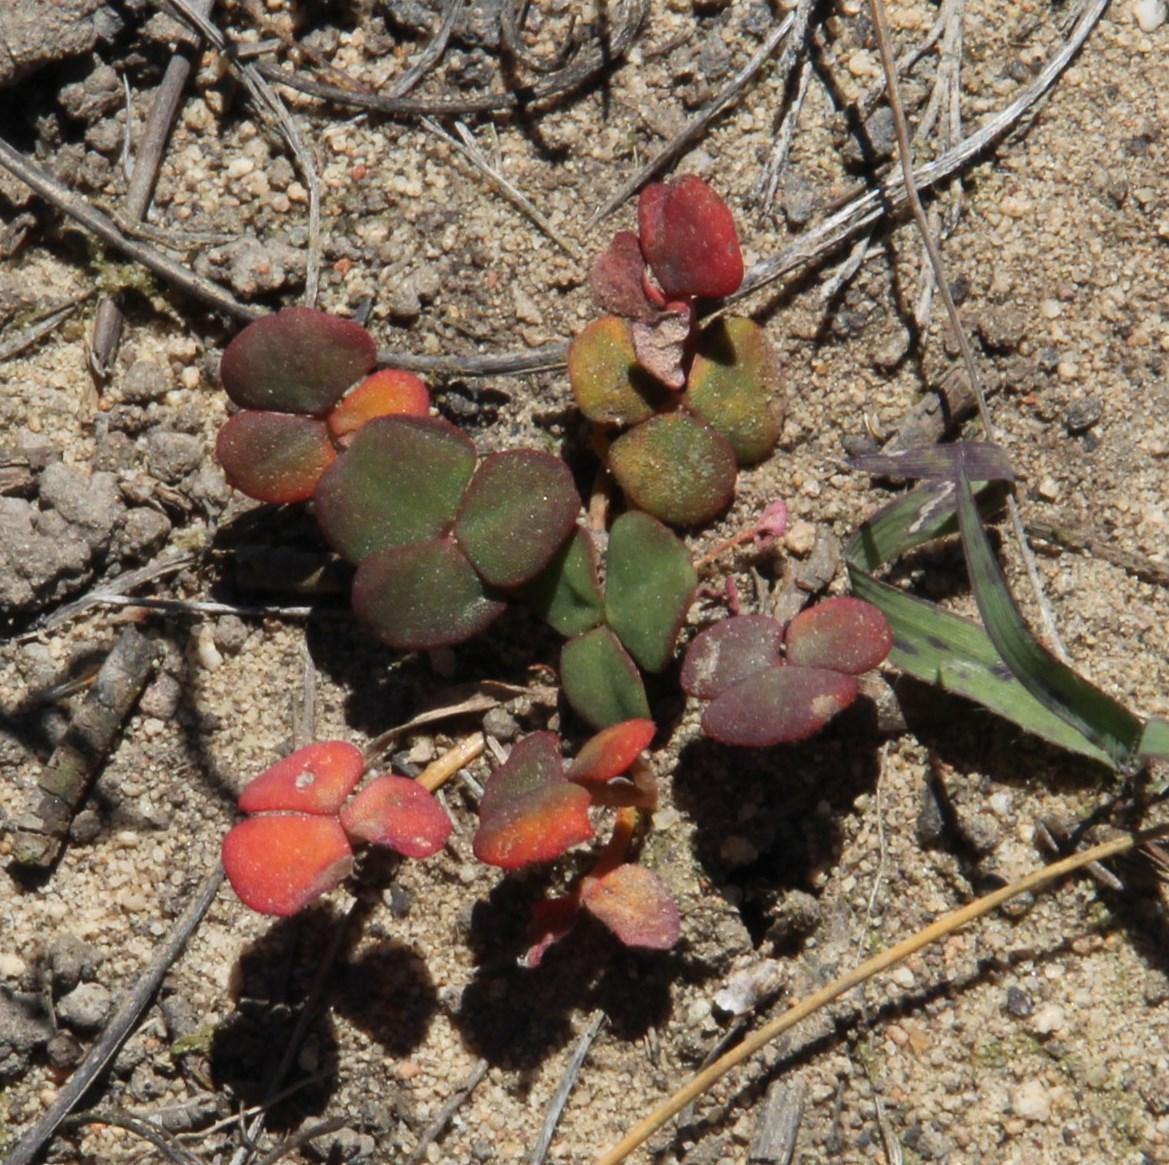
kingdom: Plantae
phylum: Tracheophyta
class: Magnoliopsida
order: Oxalidales
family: Oxalidaceae
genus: Oxalis
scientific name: Oxalis obtusa
